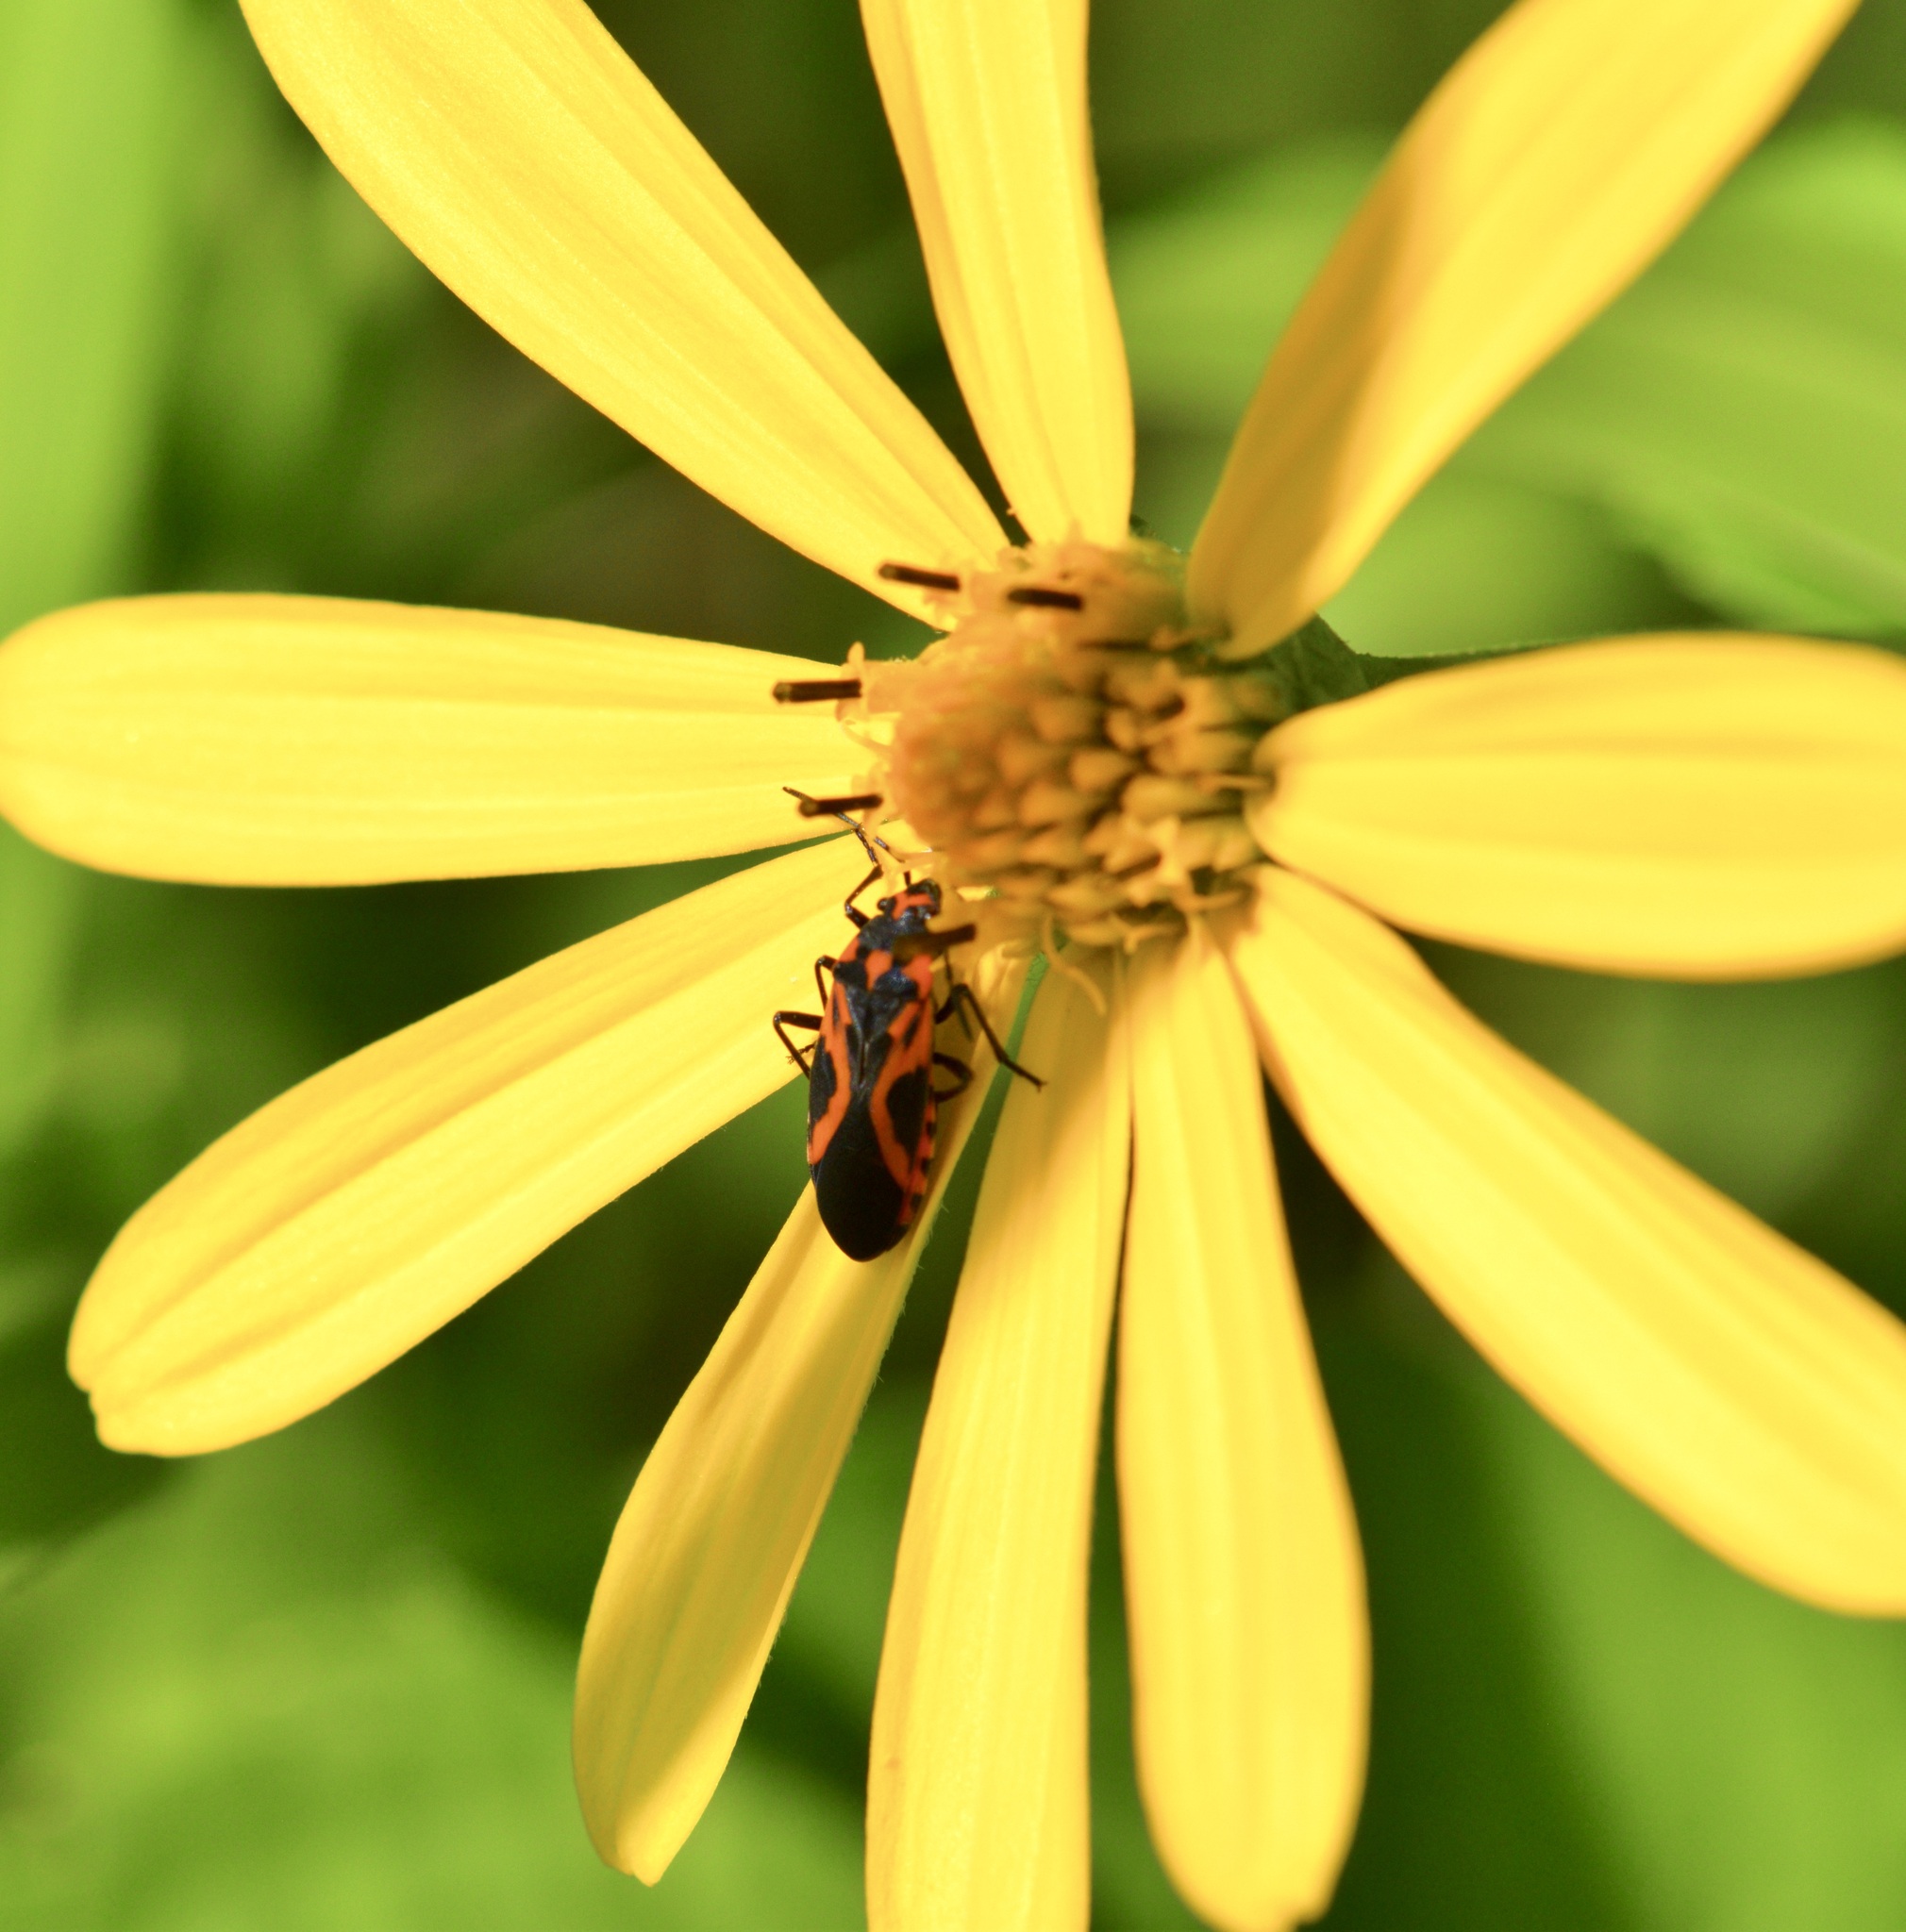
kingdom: Animalia
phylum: Arthropoda
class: Insecta
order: Hemiptera
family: Lygaeidae
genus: Lygaeus
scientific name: Lygaeus turcicus
